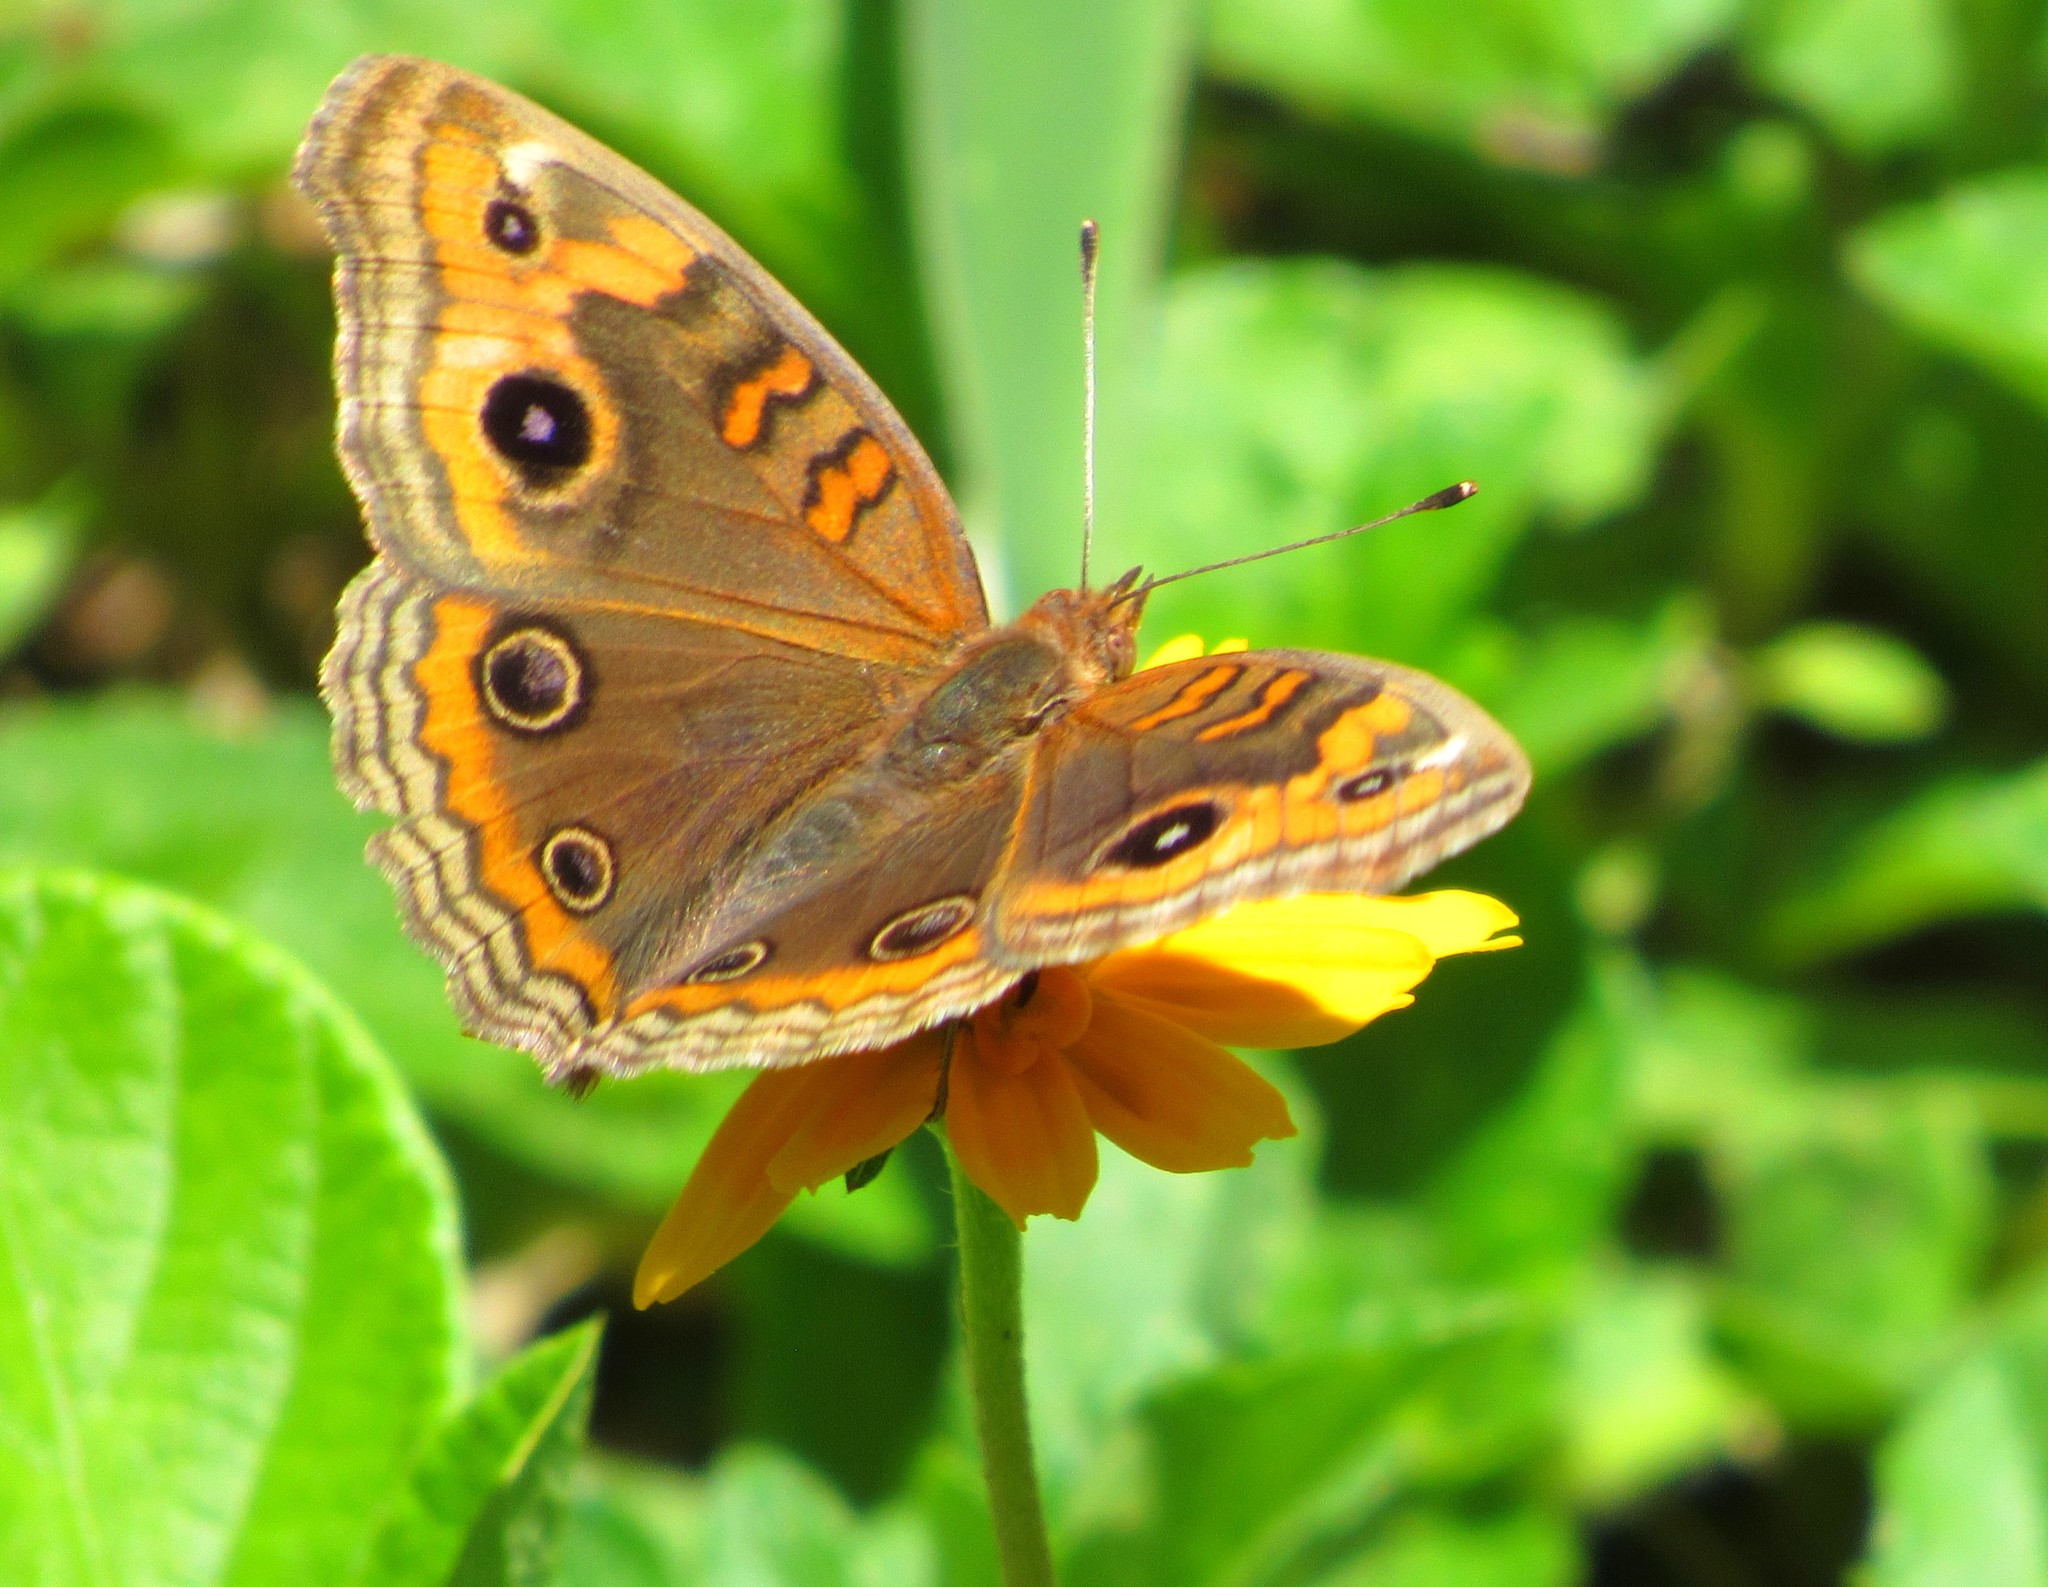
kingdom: Animalia
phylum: Arthropoda
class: Insecta
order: Lepidoptera
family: Nymphalidae
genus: Junonia
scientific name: Junonia evarete
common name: Black mangrove buckeye
